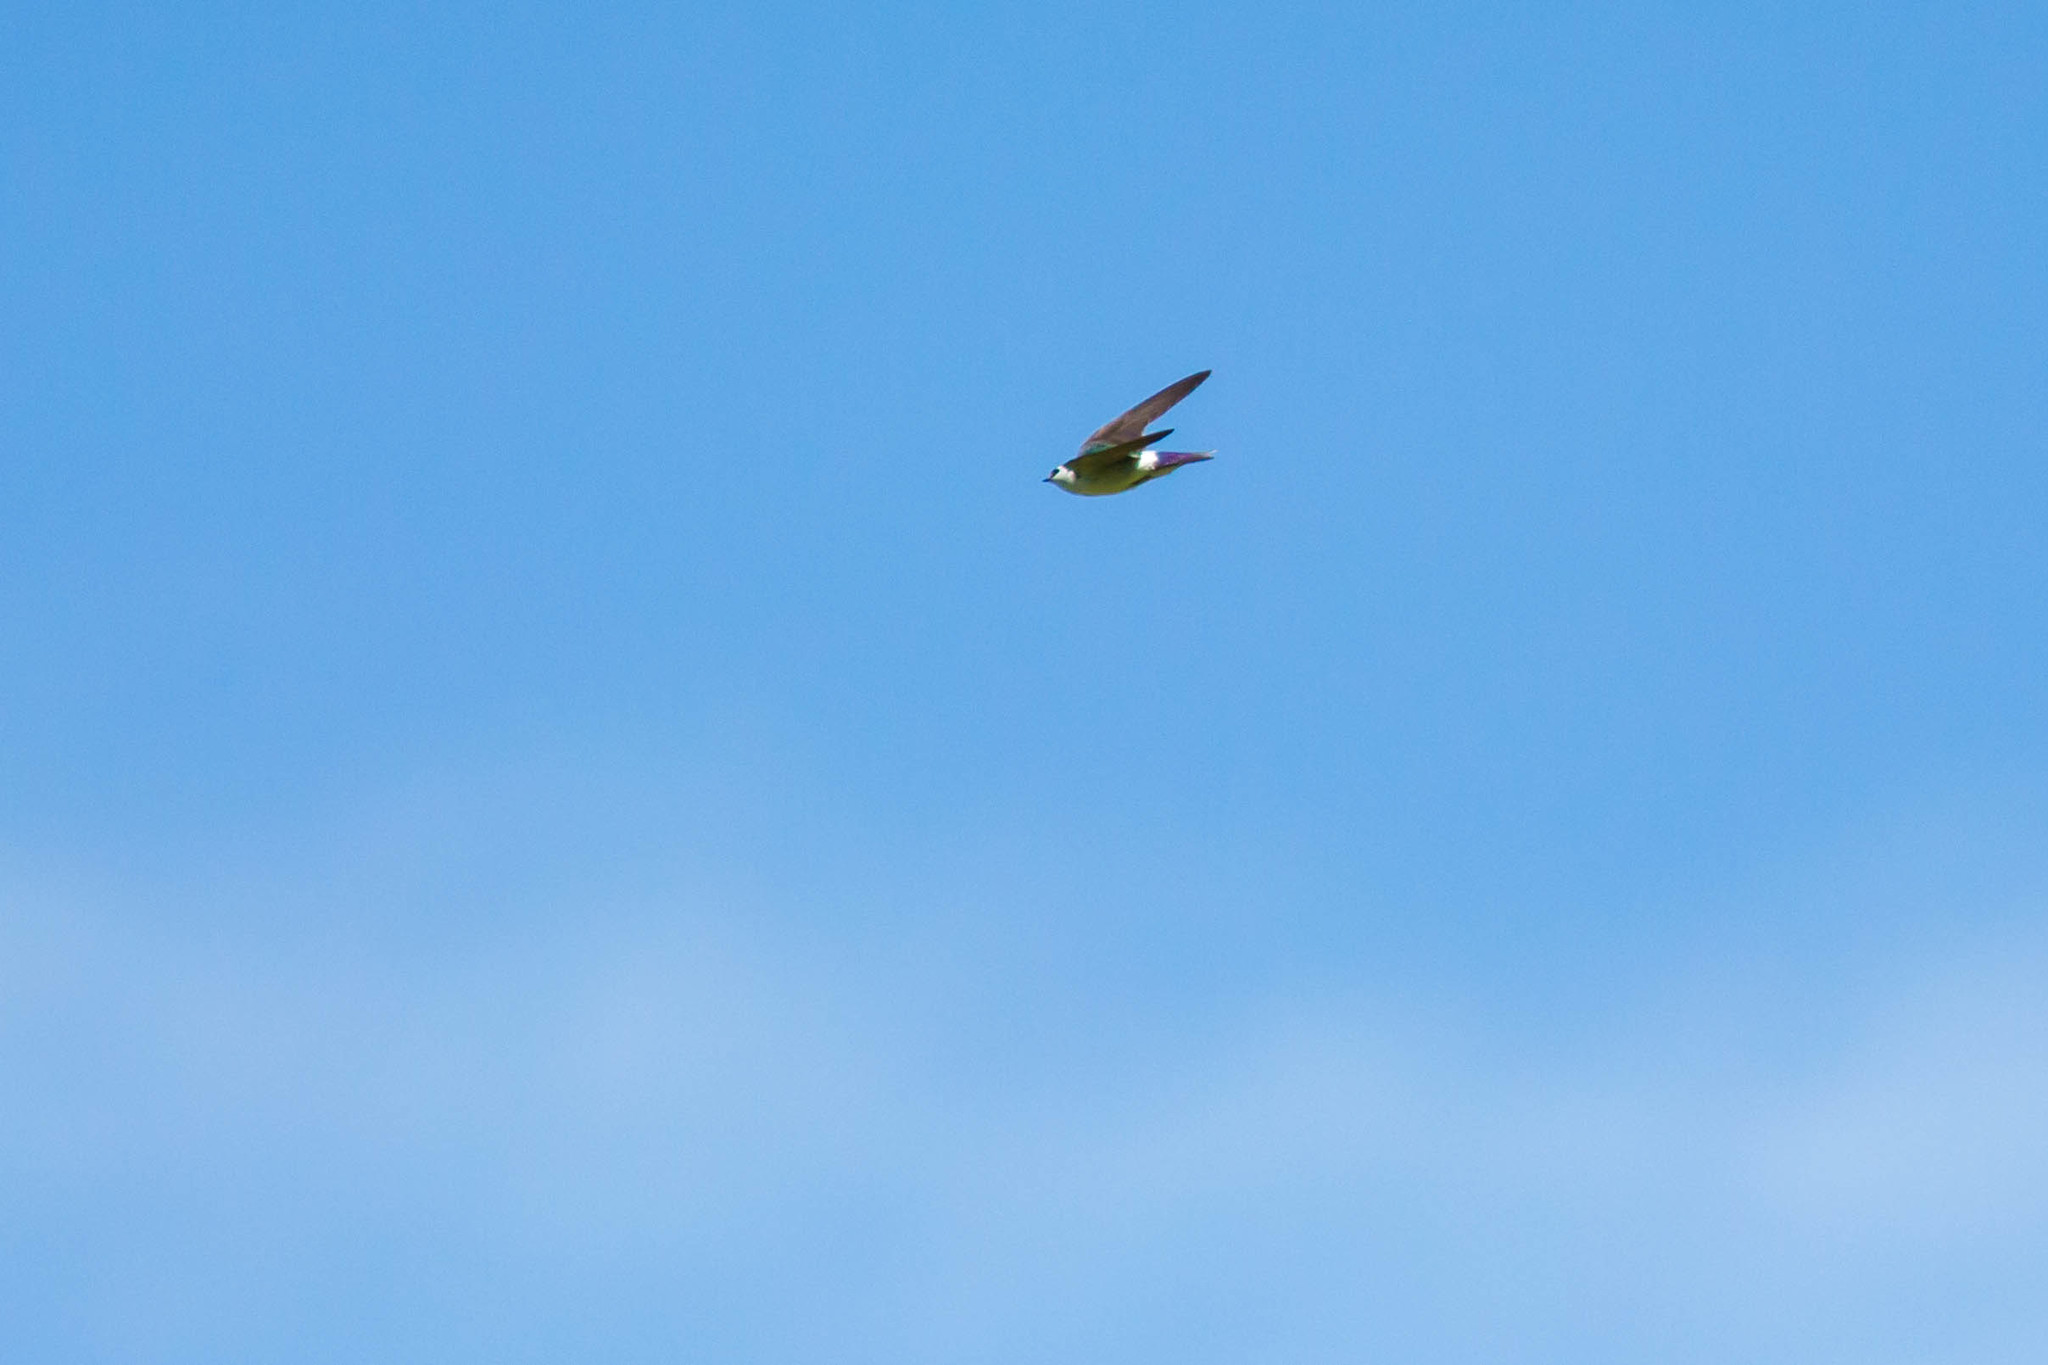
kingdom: Animalia
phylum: Chordata
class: Aves
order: Passeriformes
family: Hirundinidae
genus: Tachycineta
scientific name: Tachycineta thalassina
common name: Violet-green swallow
